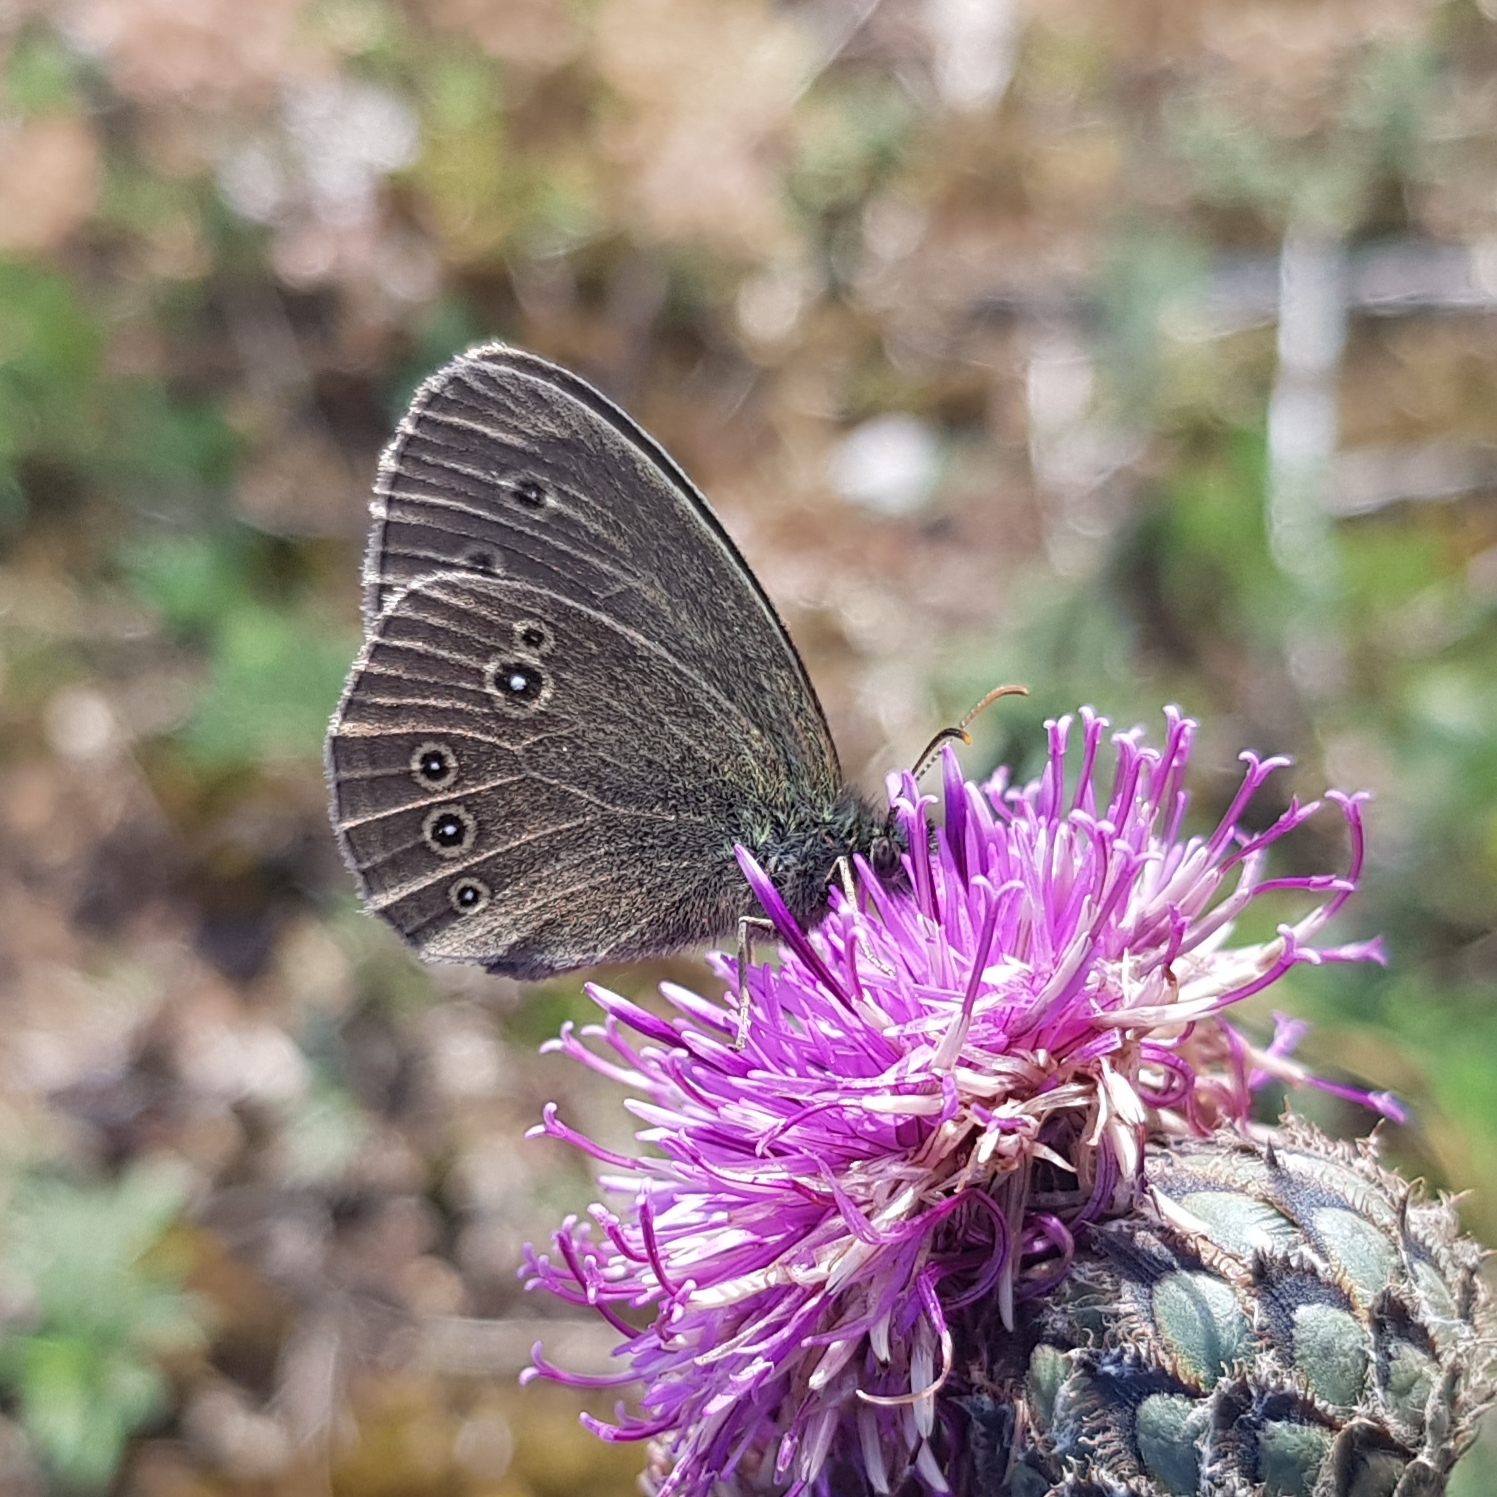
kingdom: Animalia
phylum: Arthropoda
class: Insecta
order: Lepidoptera
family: Nymphalidae
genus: Aphantopus
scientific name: Aphantopus hyperantus
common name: Ringlet
